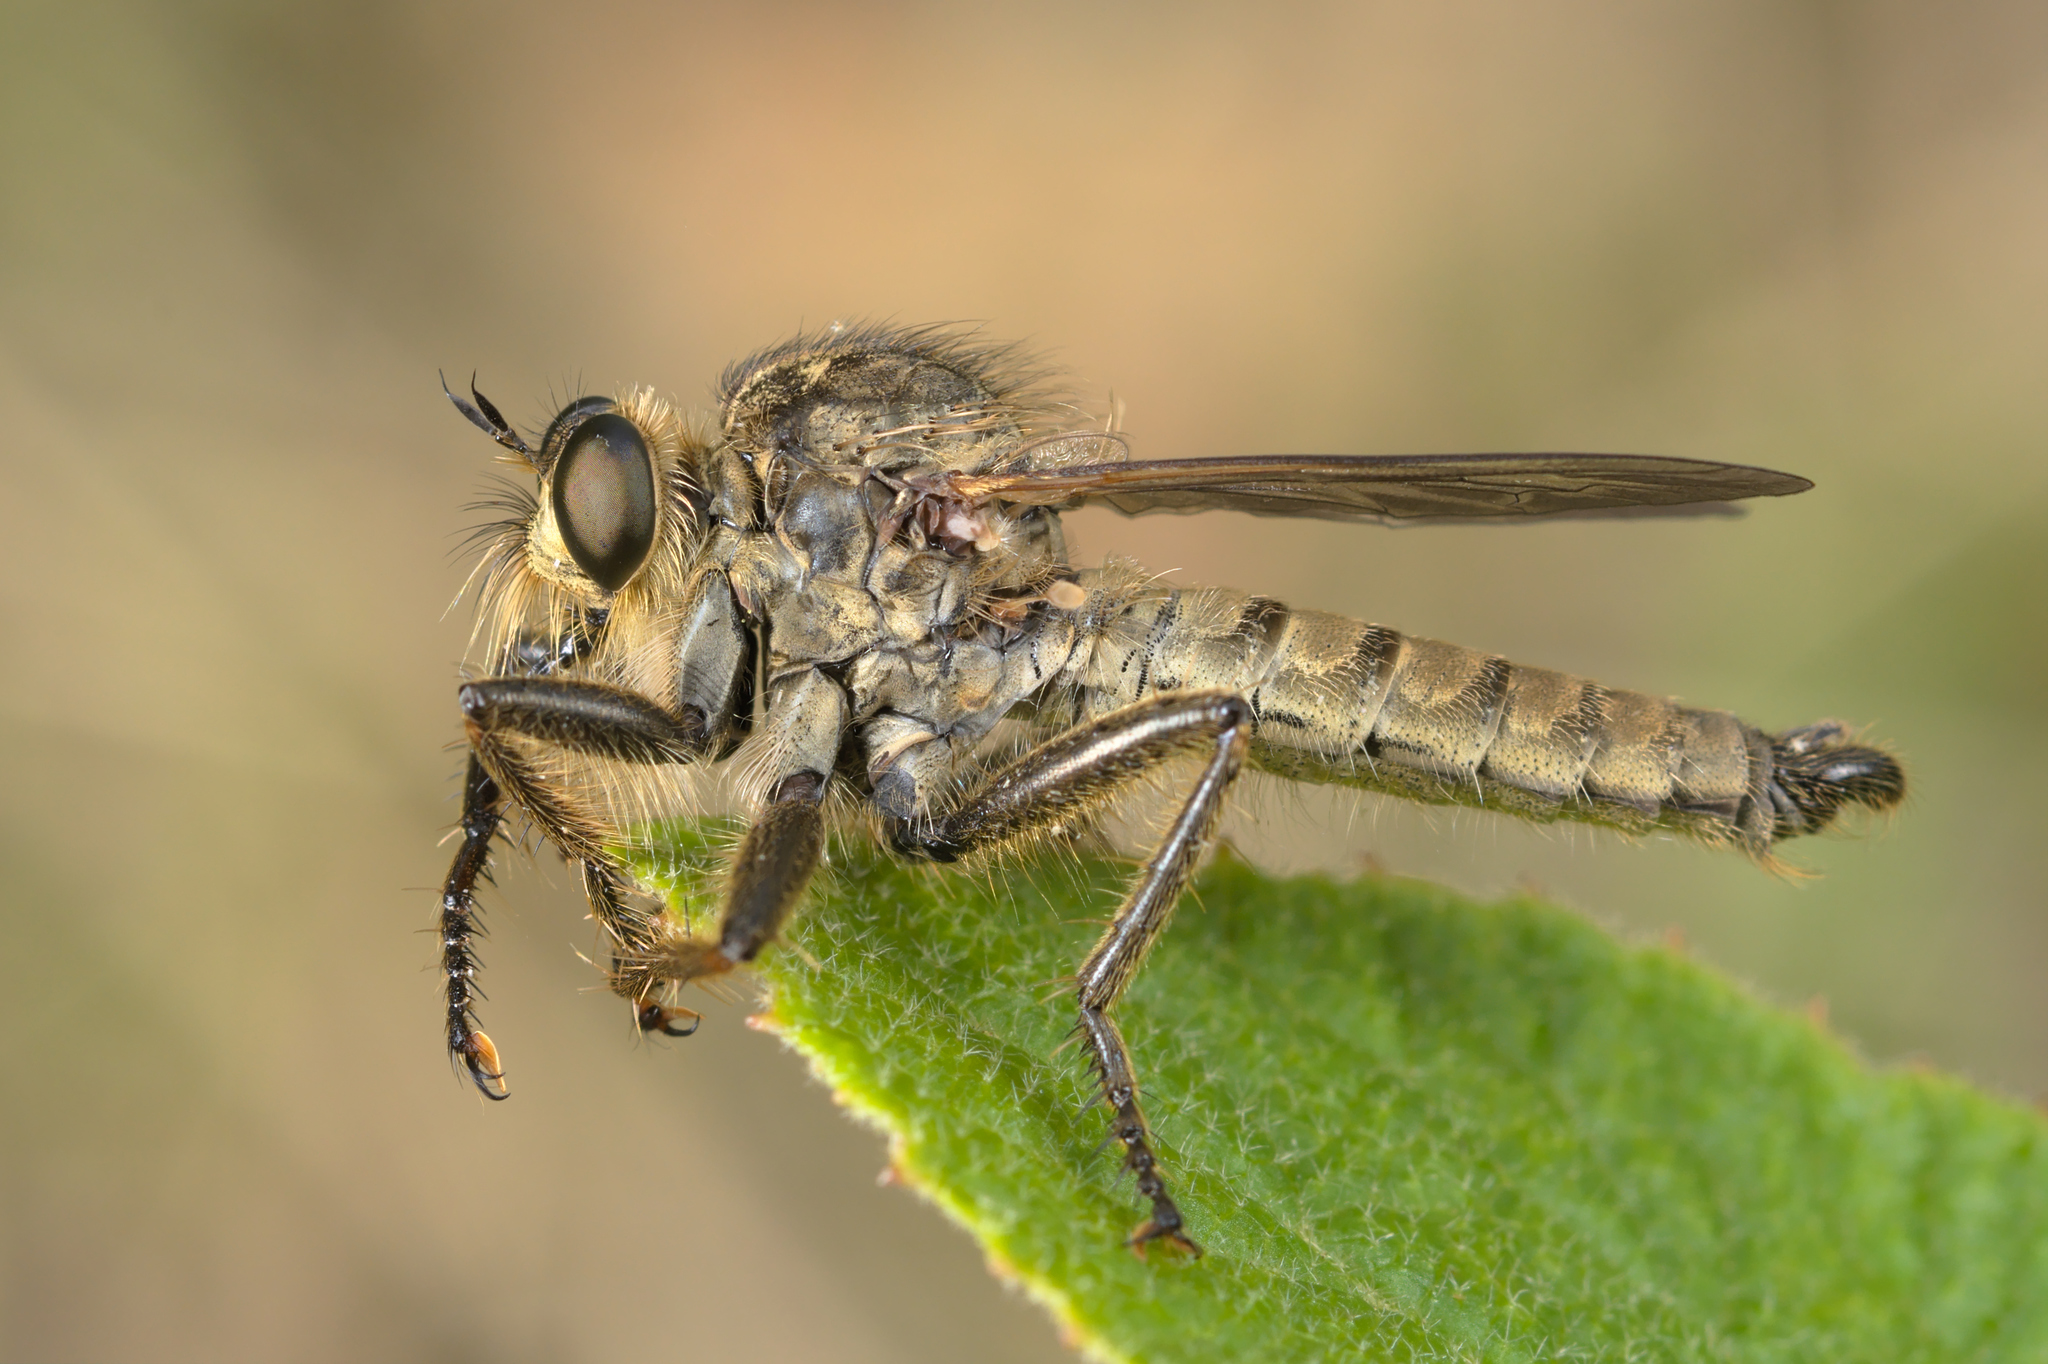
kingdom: Animalia
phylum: Arthropoda
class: Insecta
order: Diptera
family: Asilidae
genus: Machimus
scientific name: Machimus rusticus
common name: Downland robberfly
